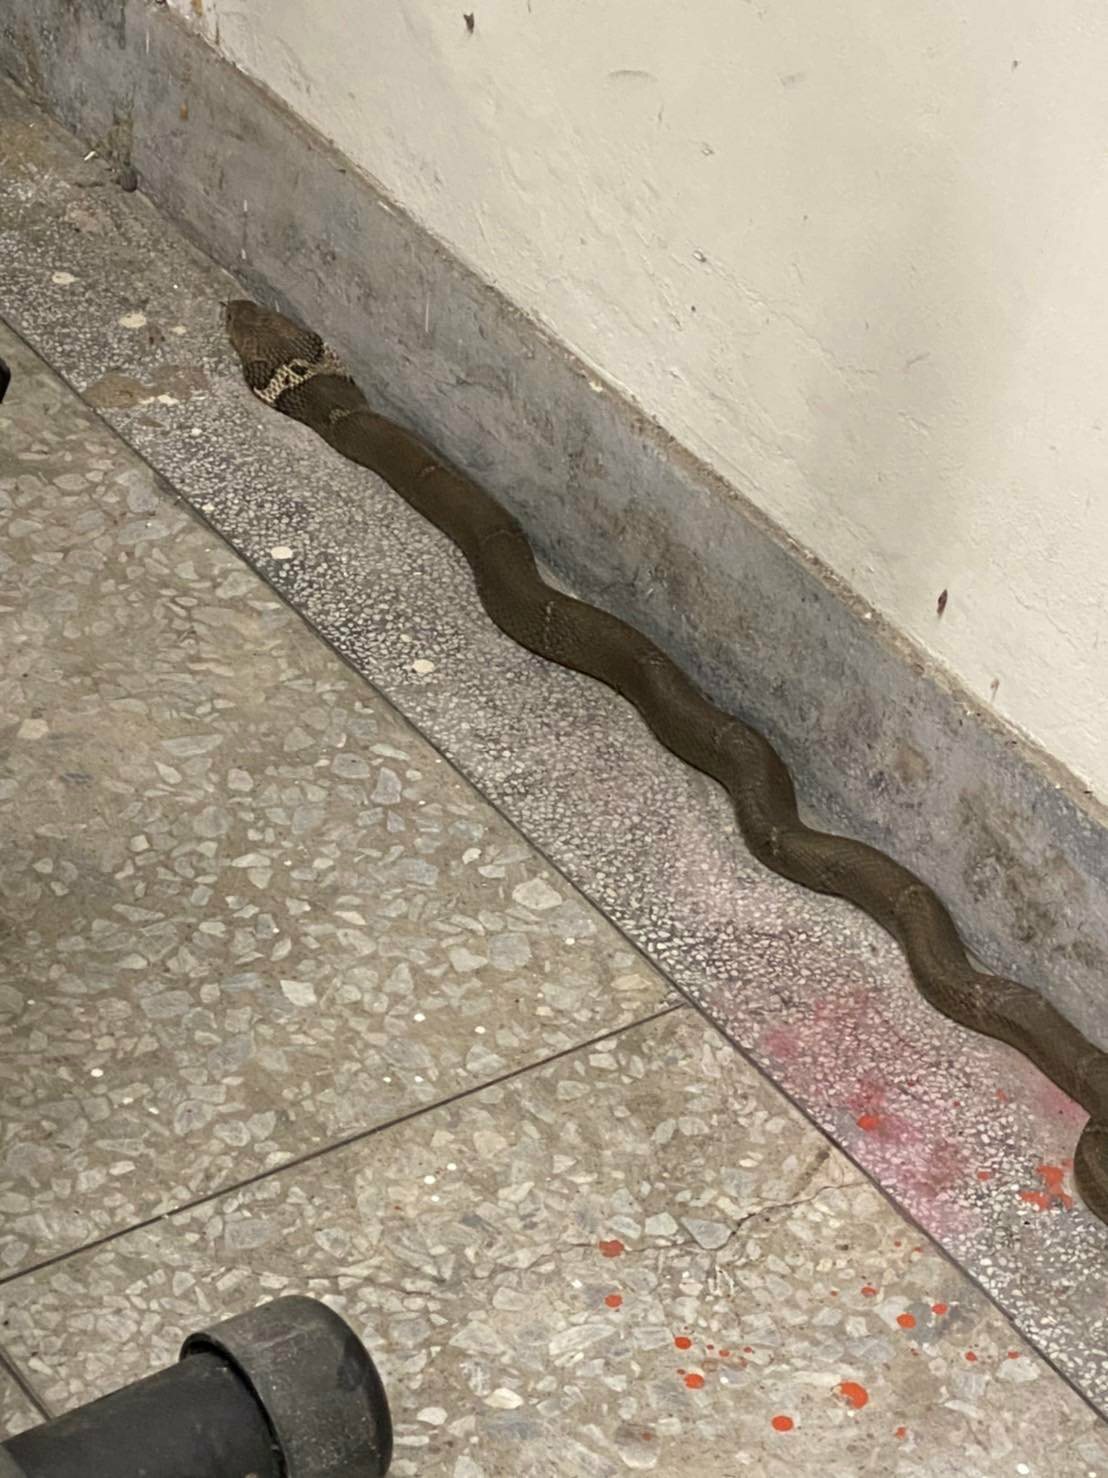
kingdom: Animalia
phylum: Chordata
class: Squamata
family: Elapidae
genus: Naja
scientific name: Naja atra
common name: Chinese cobra
